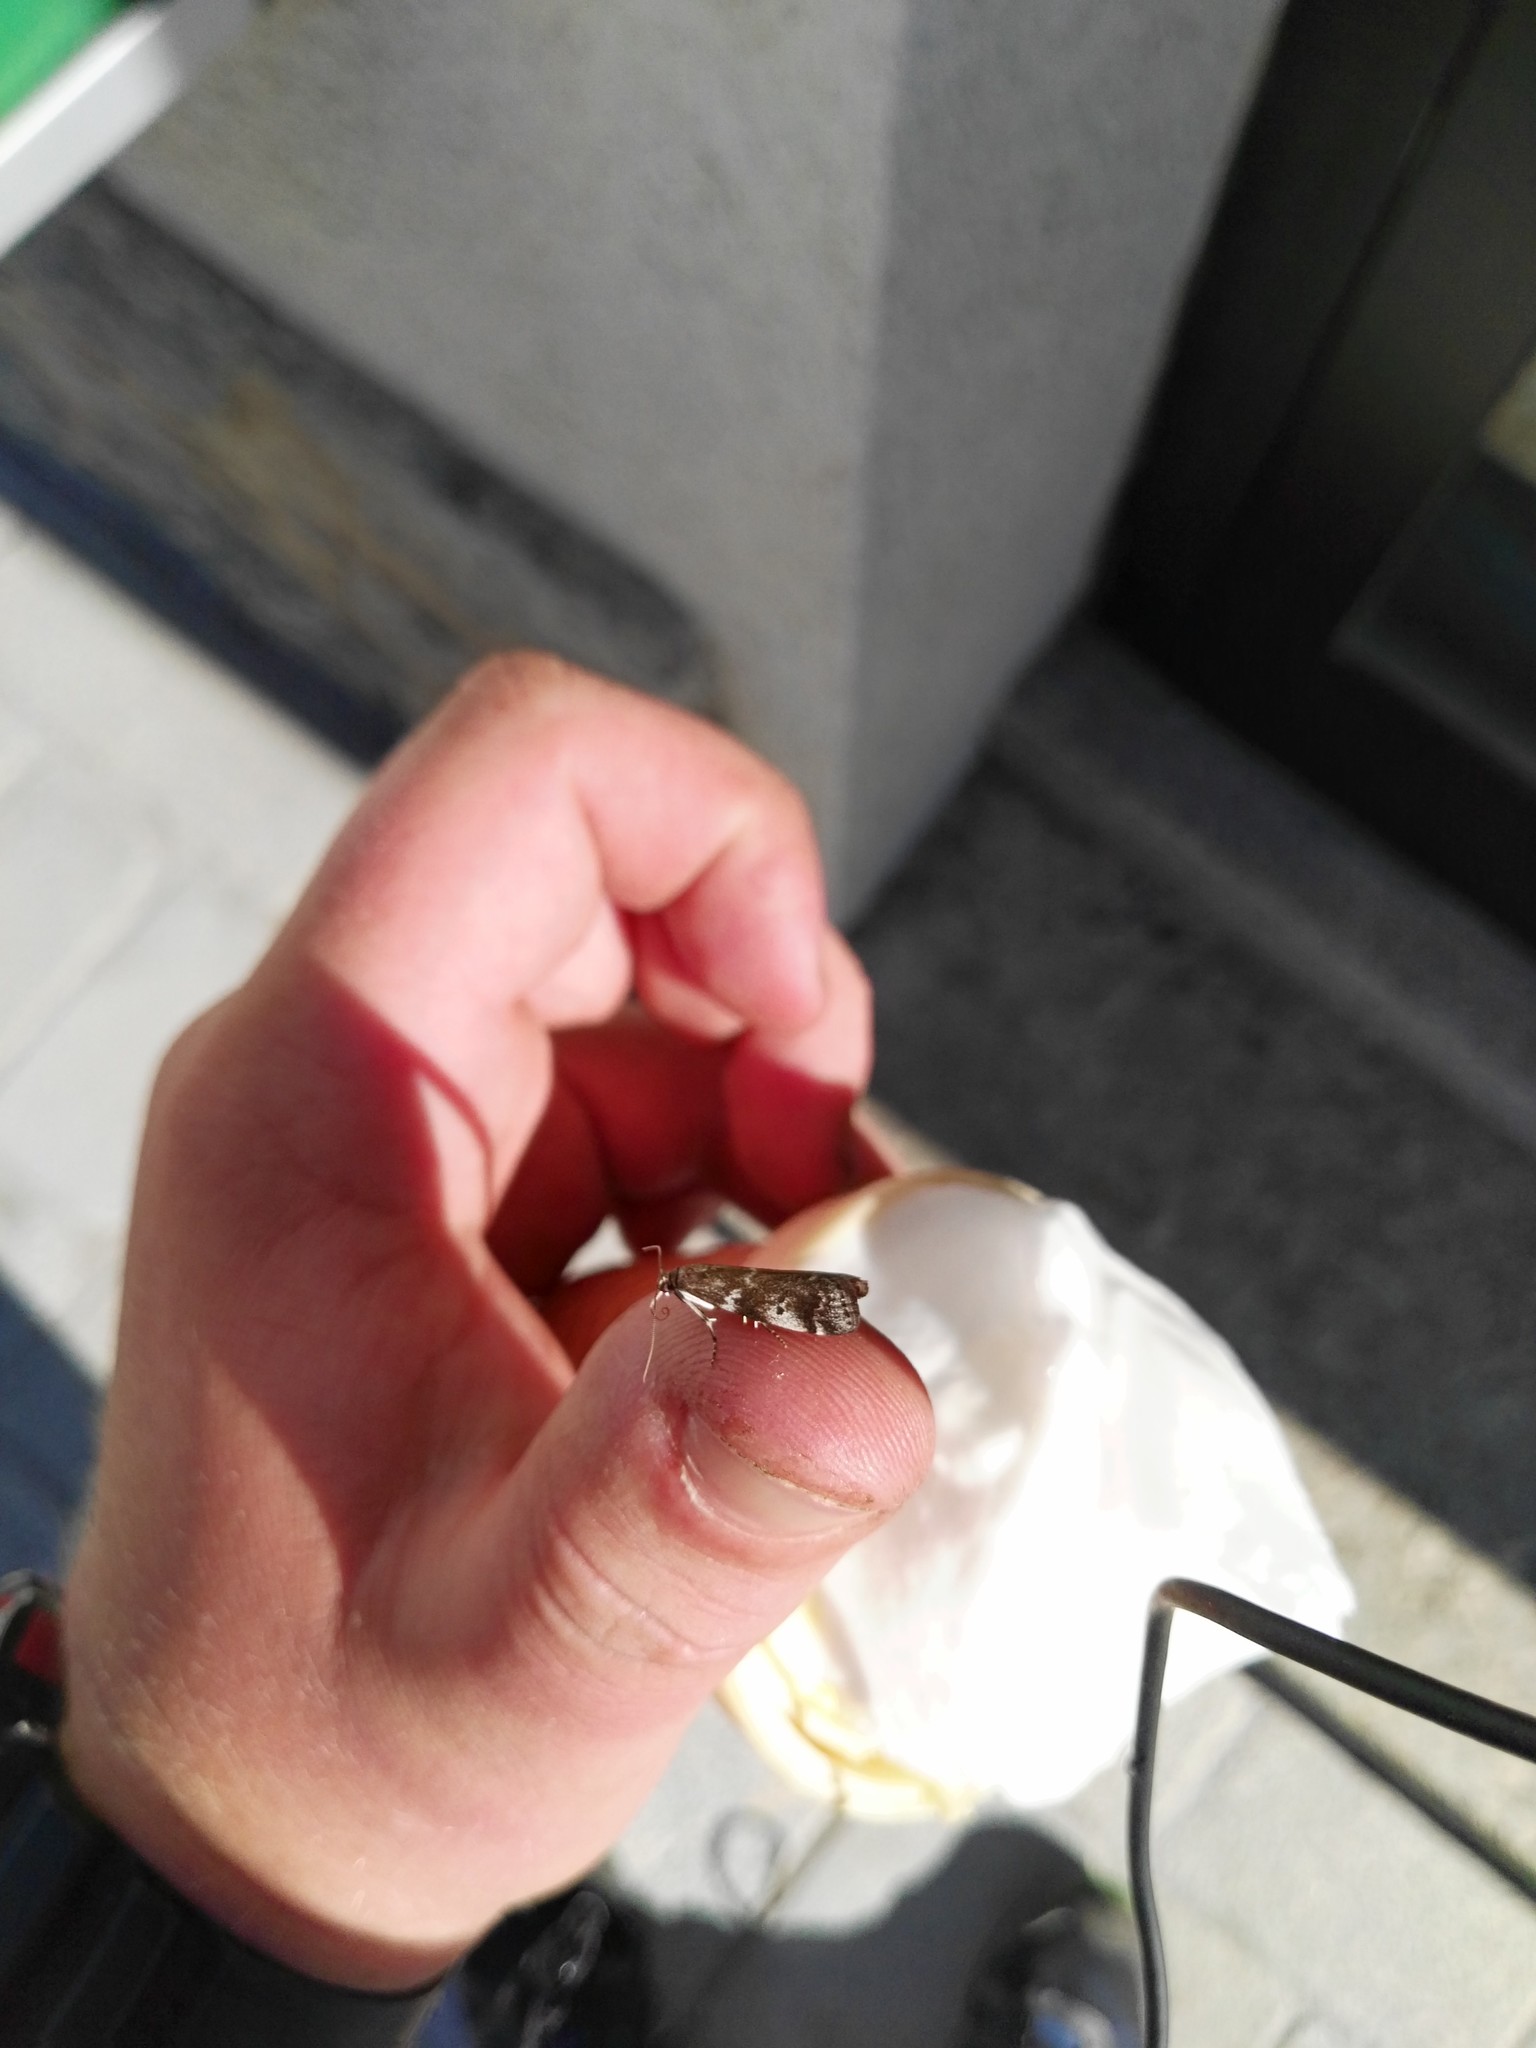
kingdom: Animalia
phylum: Arthropoda
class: Insecta
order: Lepidoptera
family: Pyralidae
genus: Assara
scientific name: Assara terebrella
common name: Dark spruce knot-horn
